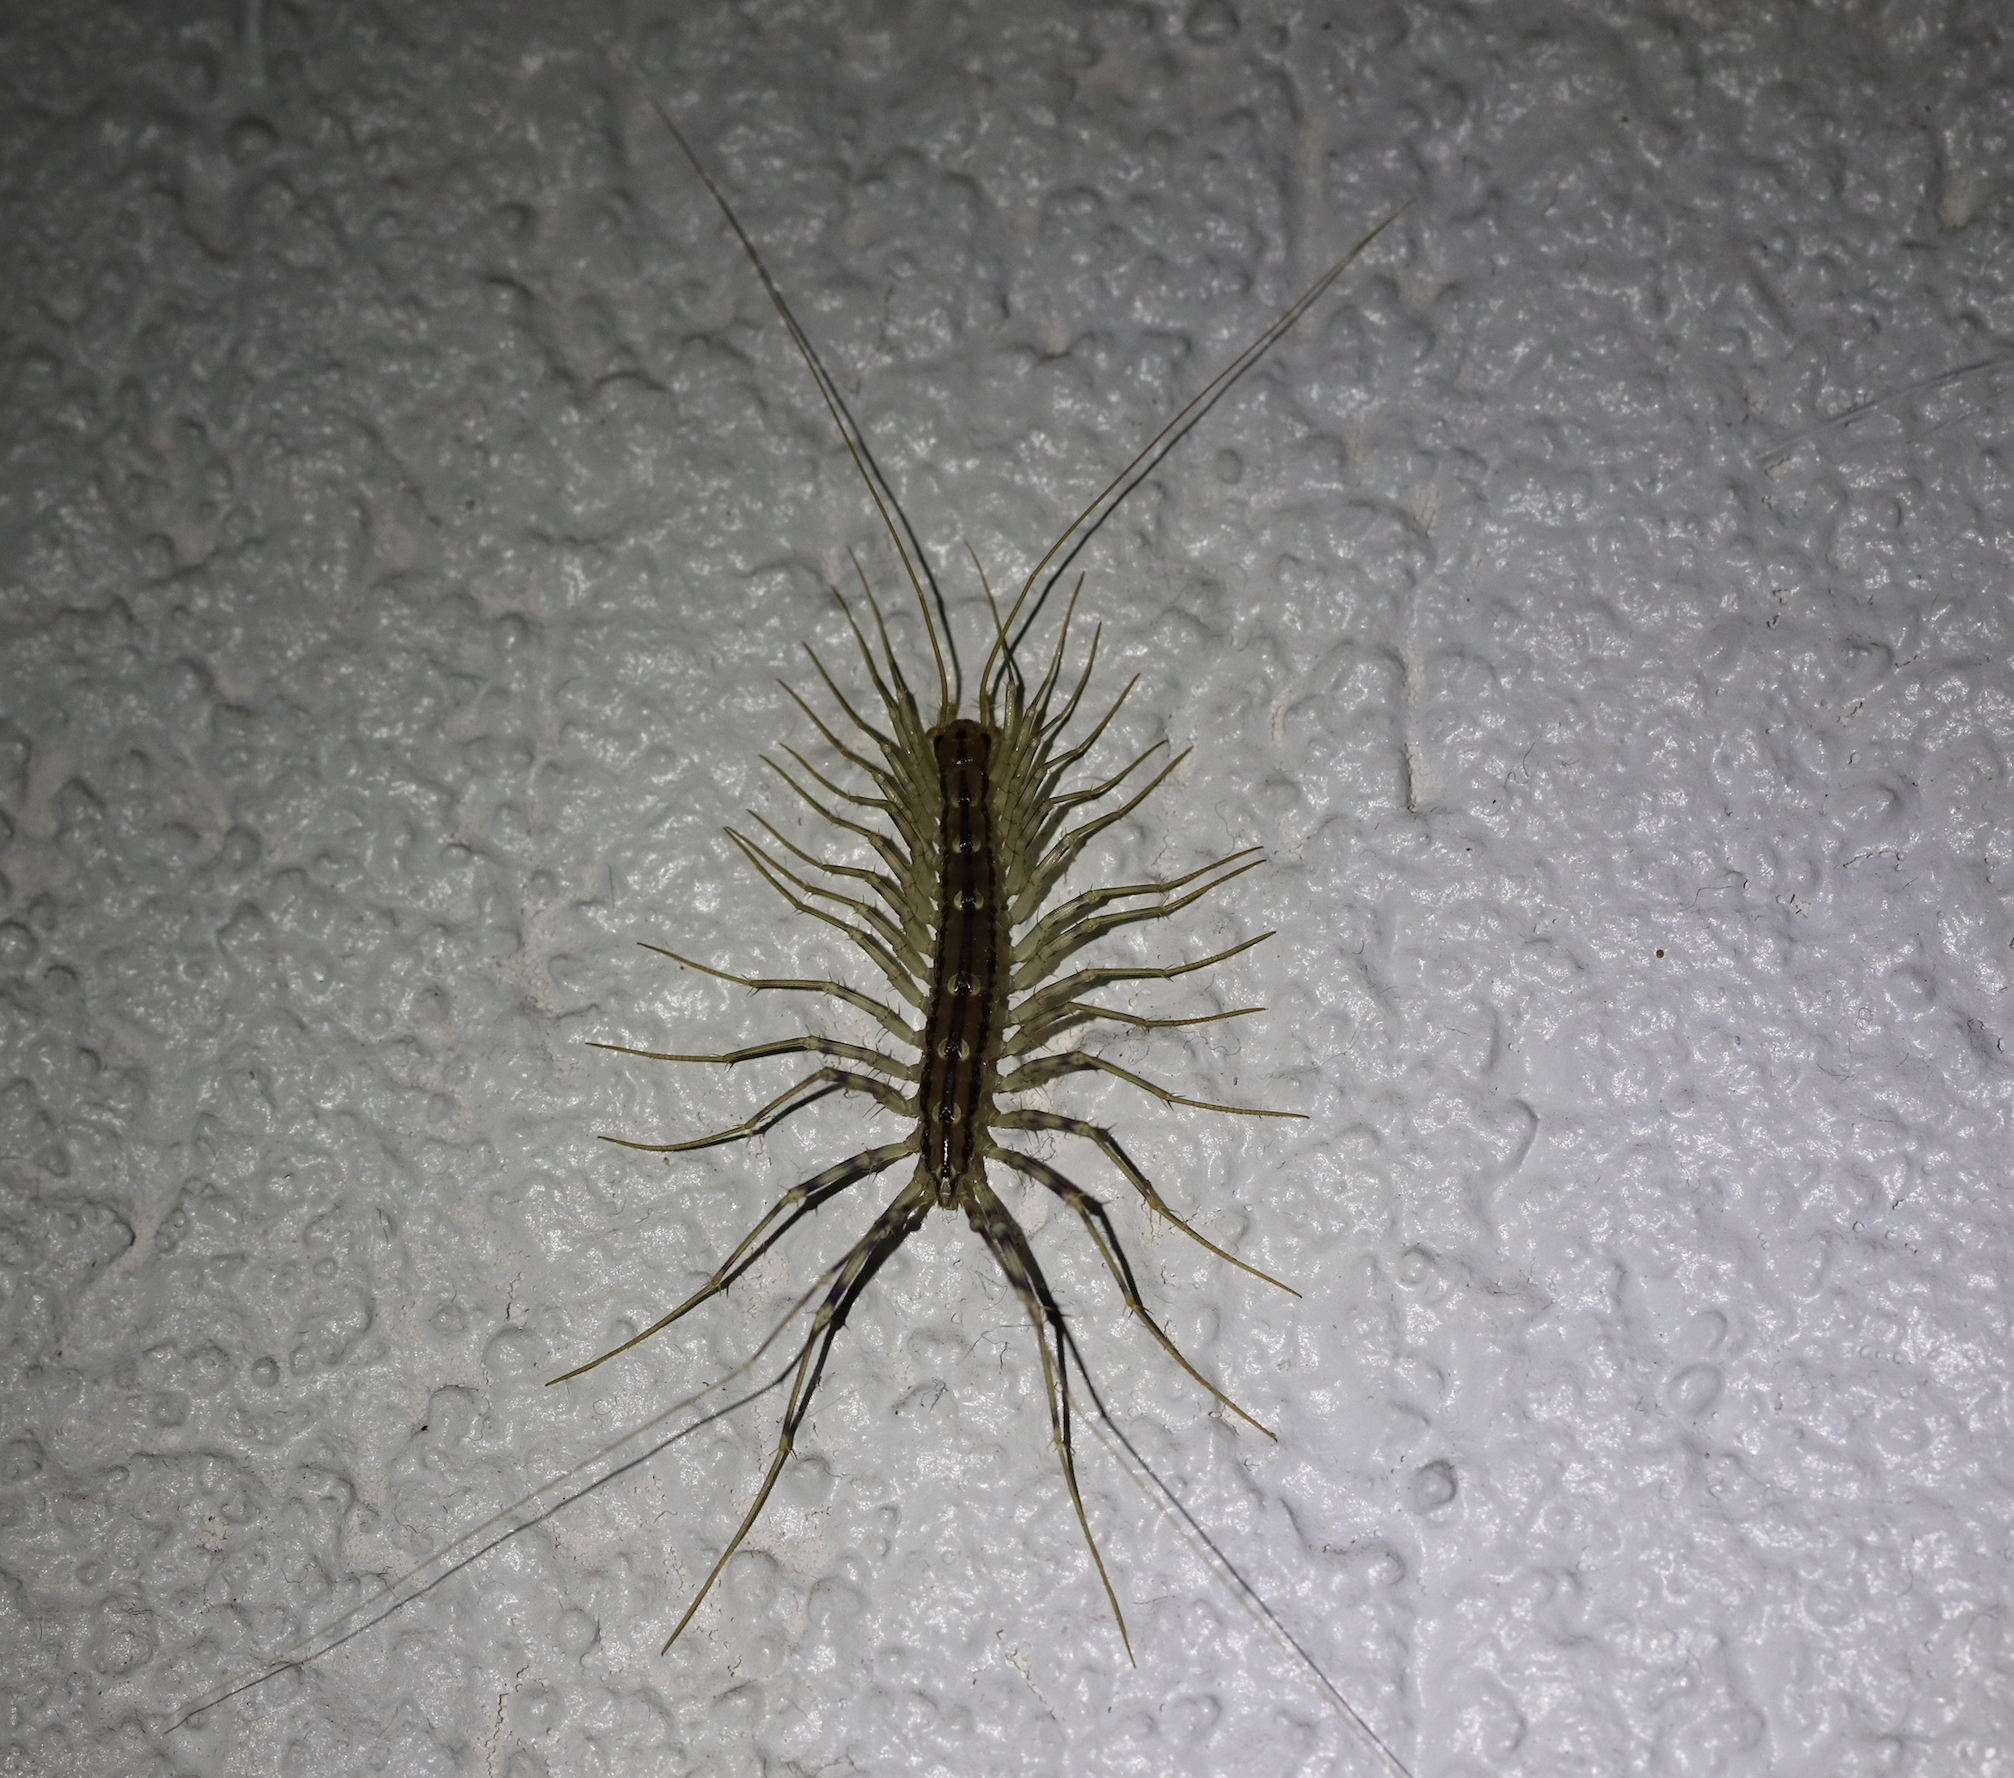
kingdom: Animalia
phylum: Arthropoda
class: Chilopoda
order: Scutigeromorpha
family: Scutigeridae
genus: Scutigera
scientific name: Scutigera coleoptrata
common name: House centipede
